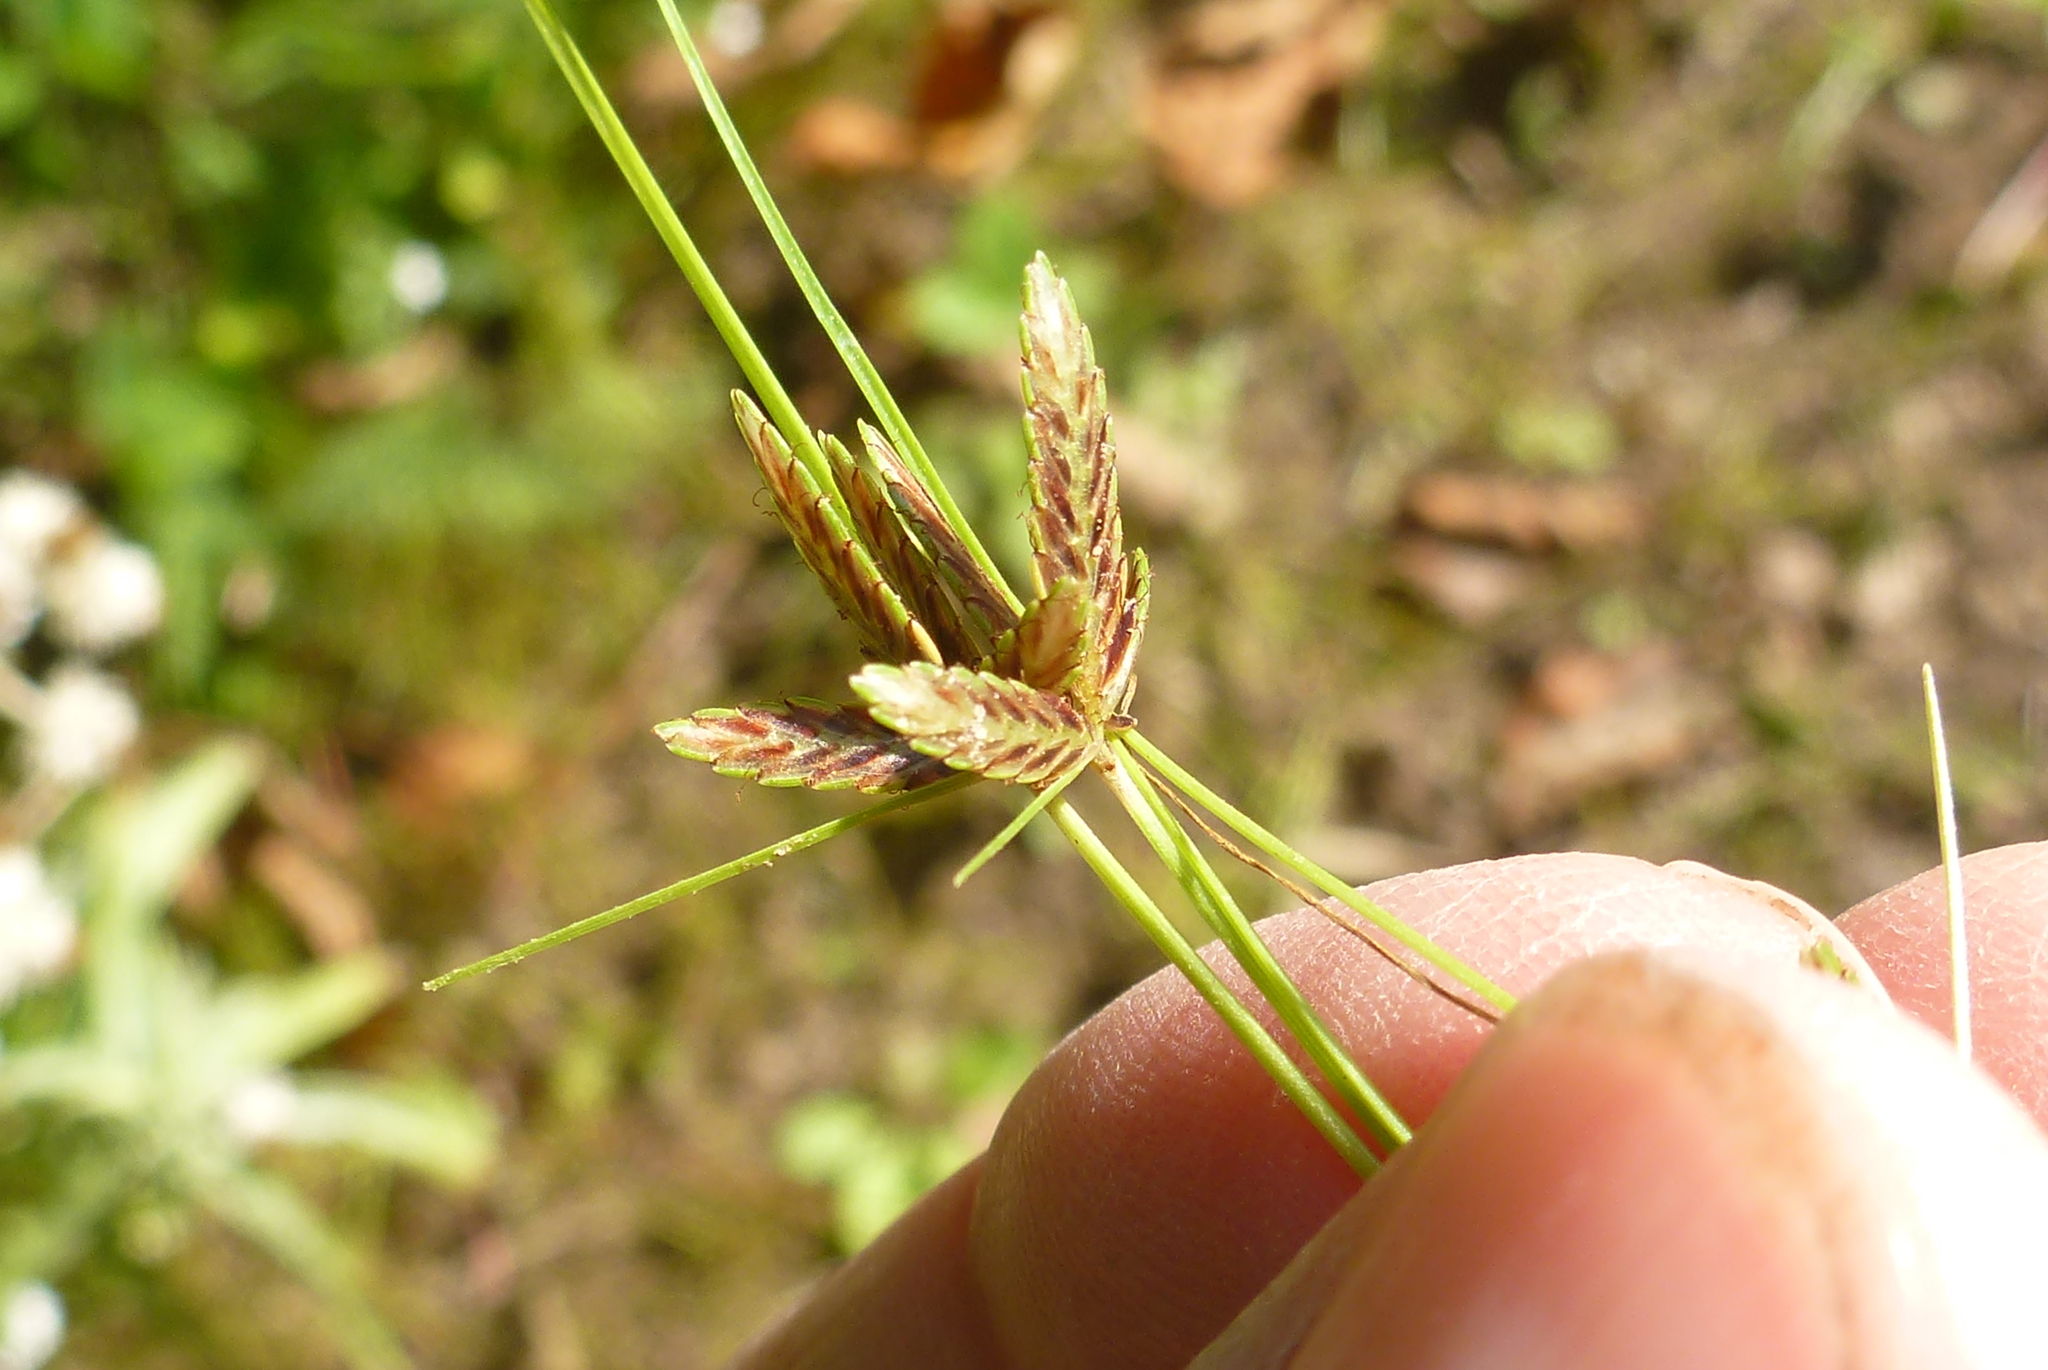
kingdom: Plantae
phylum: Tracheophyta
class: Liliopsida
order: Poales
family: Cyperaceae
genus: Cyperus
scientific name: Cyperus bipartitus
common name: Brook flatsedge
